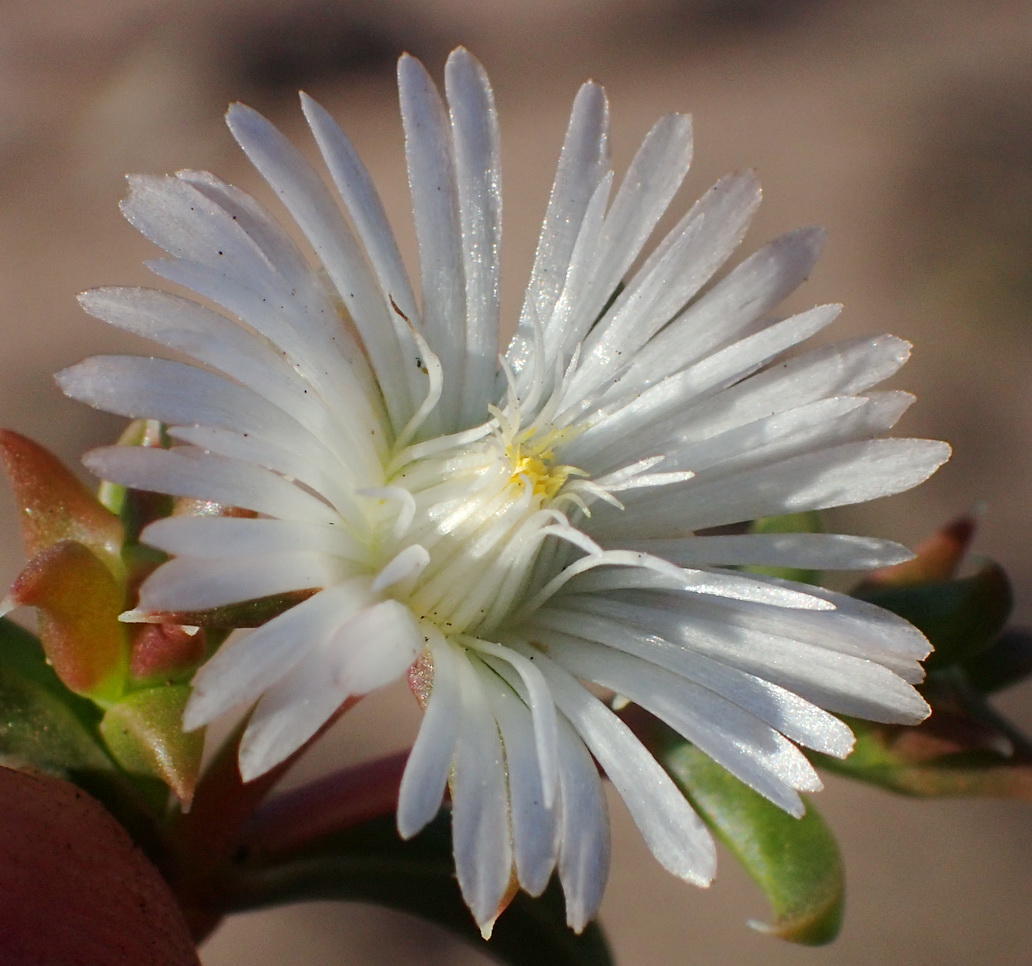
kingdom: Plantae
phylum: Tracheophyta
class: Magnoliopsida
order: Caryophyllales
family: Aizoaceae
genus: Delosperma
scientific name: Delosperma inconspicuum
